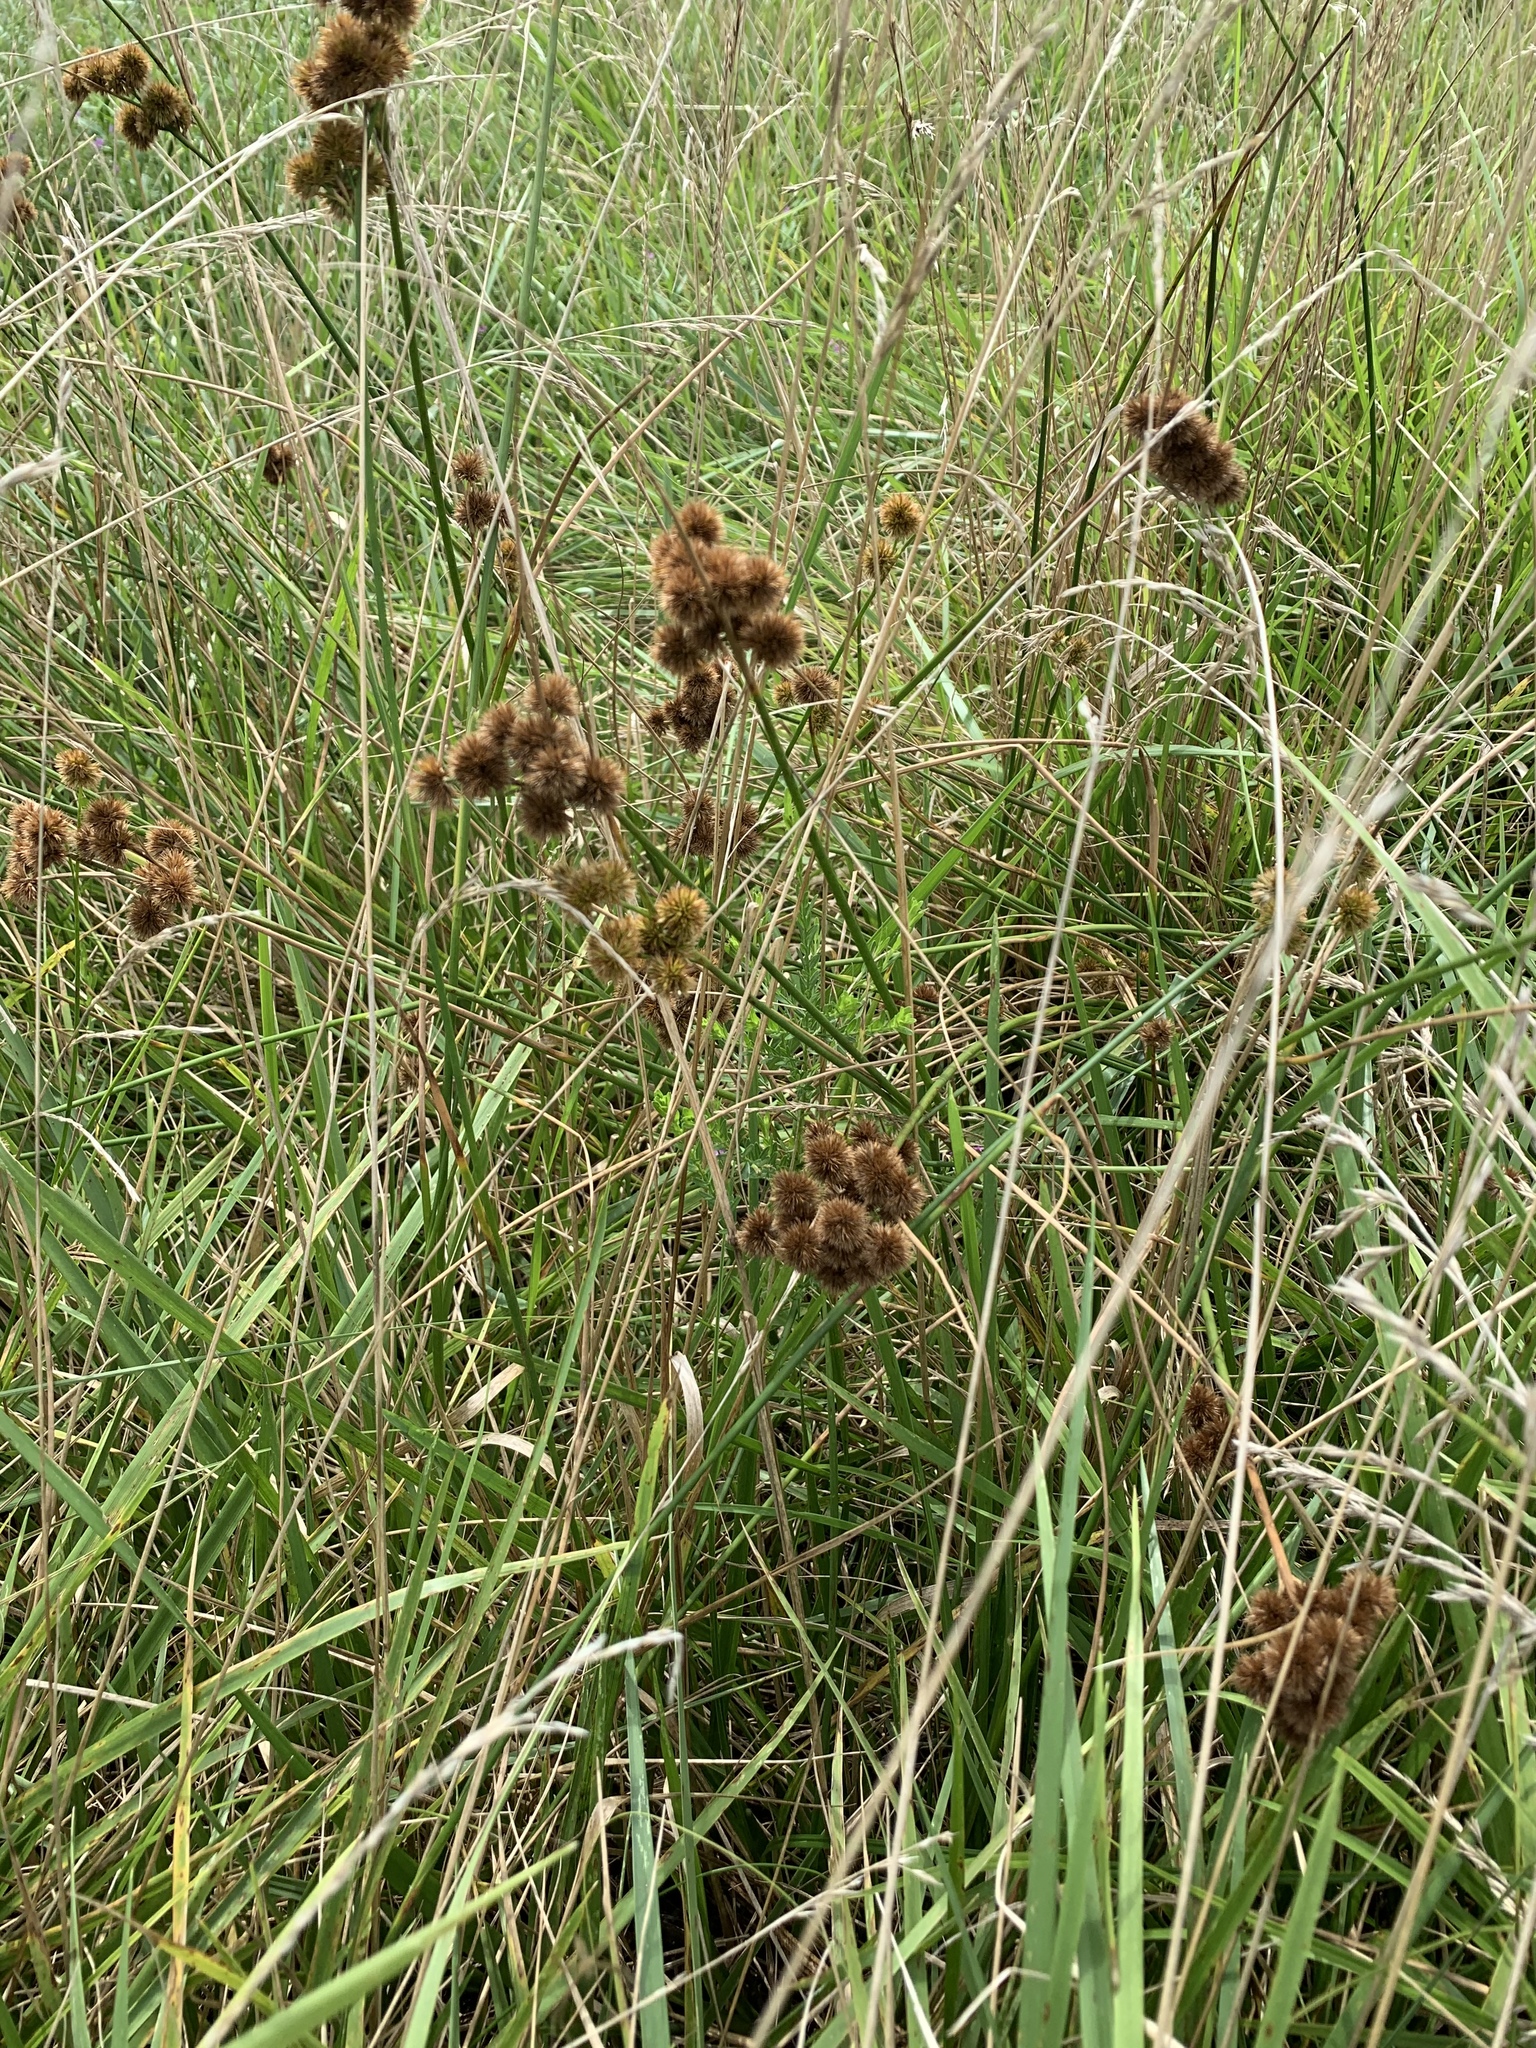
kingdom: Plantae
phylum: Tracheophyta
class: Liliopsida
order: Poales
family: Juncaceae
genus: Juncus
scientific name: Juncus torreyi
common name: Torrey's rush
